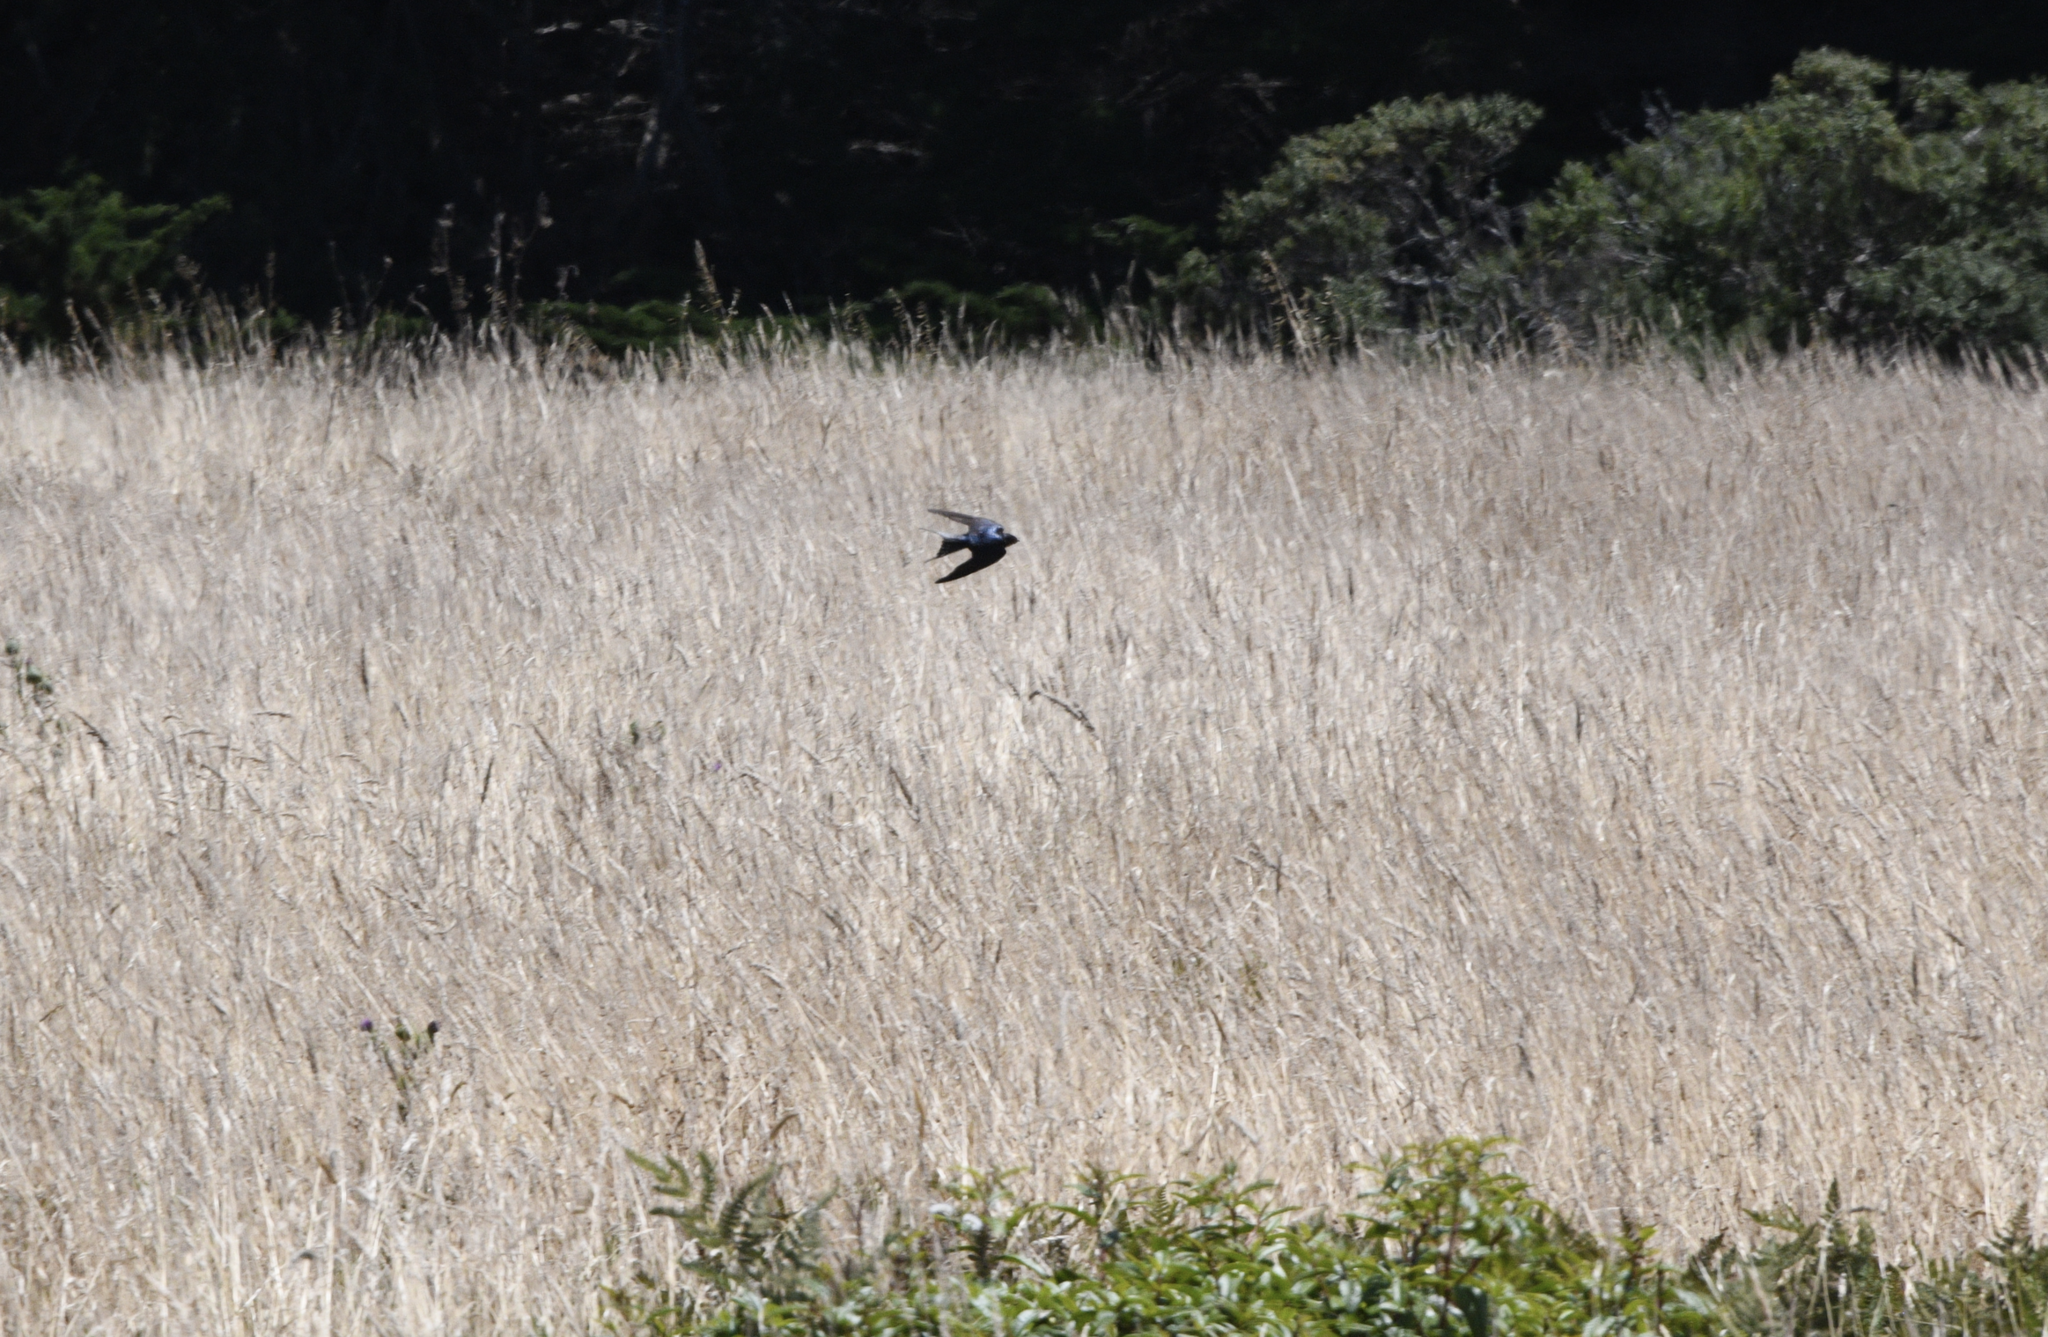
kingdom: Animalia
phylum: Chordata
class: Aves
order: Passeriformes
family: Hirundinidae
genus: Hirundo
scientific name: Hirundo rustica
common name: Barn swallow
